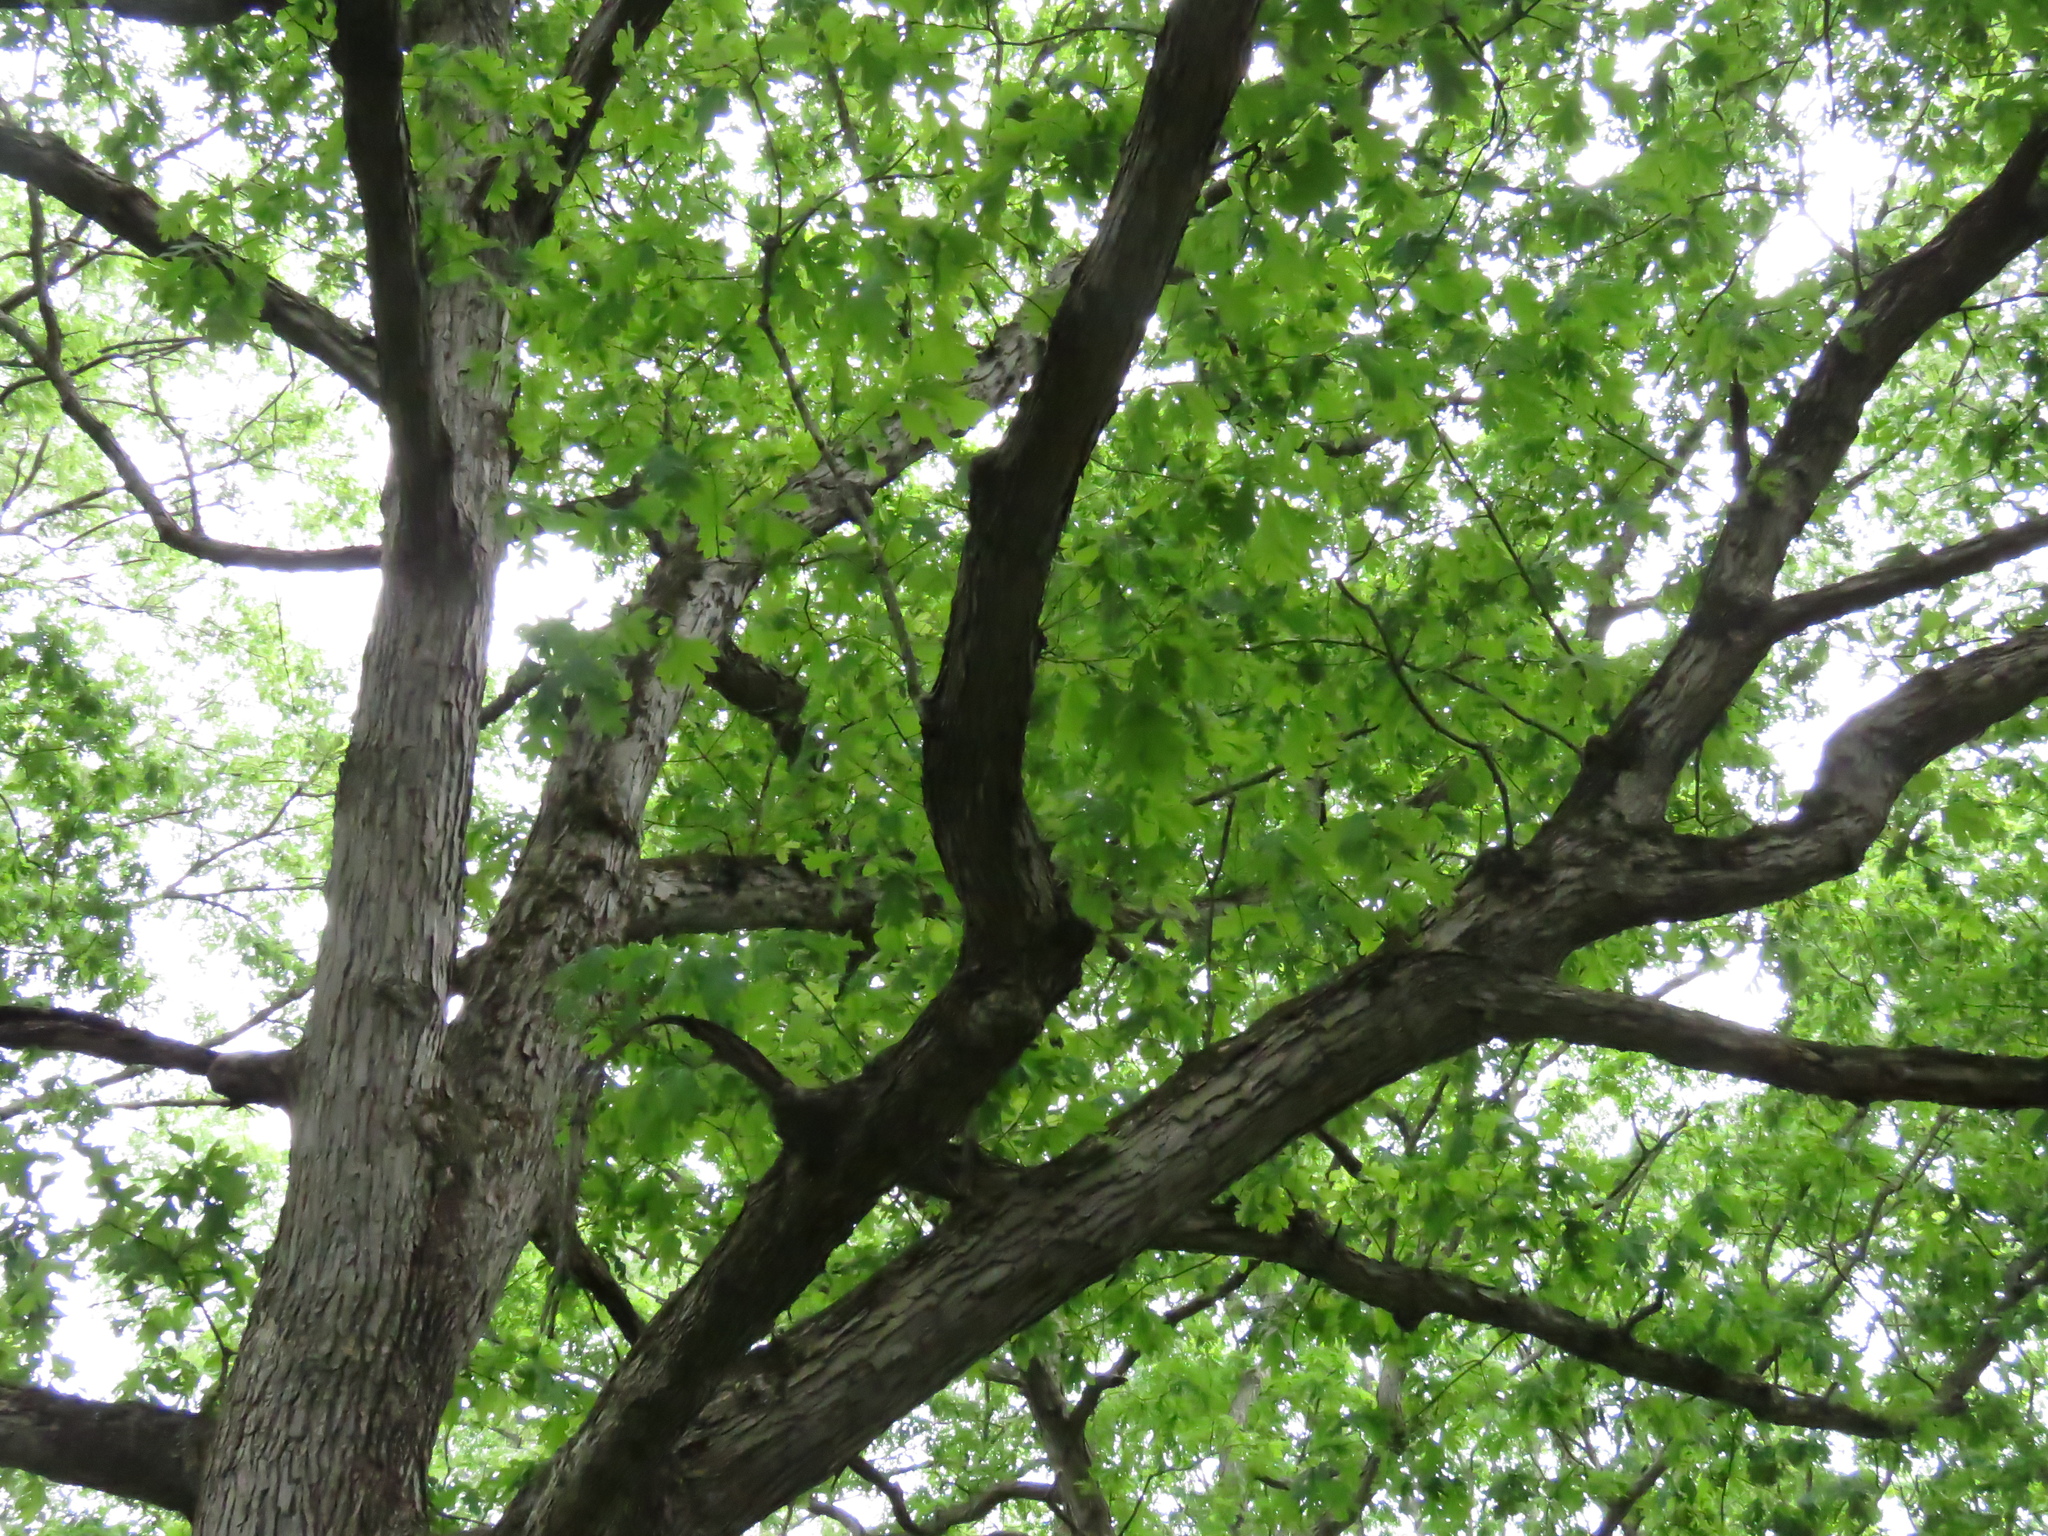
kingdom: Plantae
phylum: Tracheophyta
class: Magnoliopsida
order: Fagales
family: Fagaceae
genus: Quercus
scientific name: Quercus alba
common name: White oak
